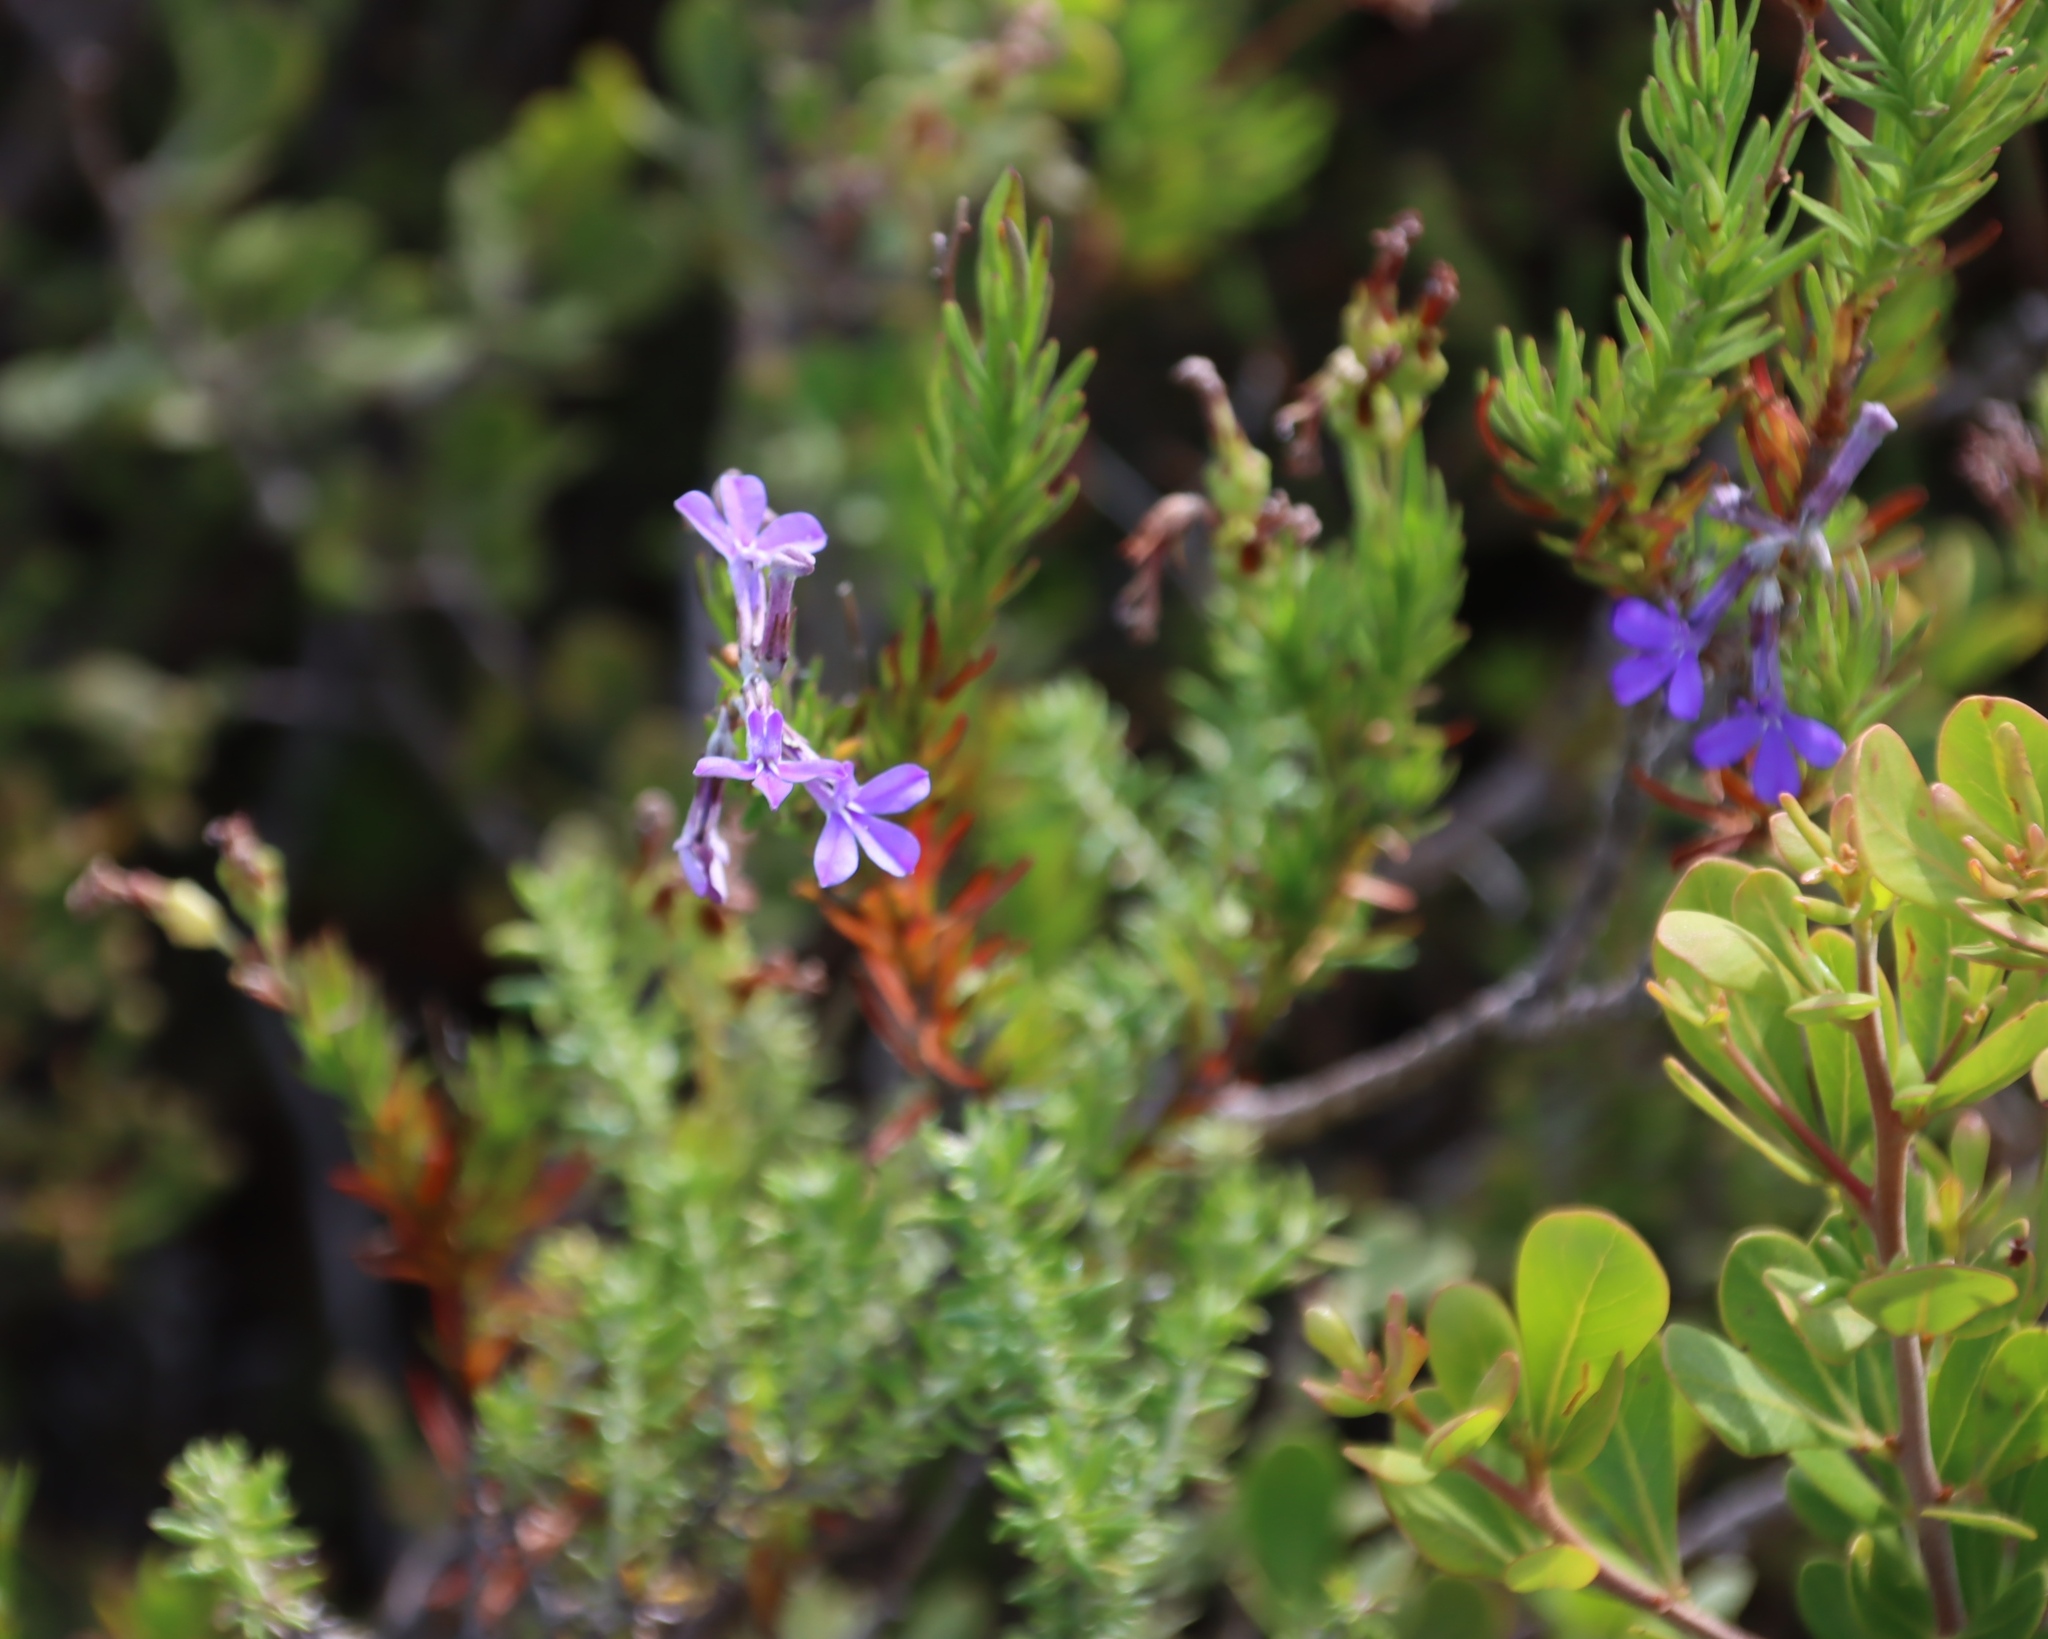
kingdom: Plantae
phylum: Tracheophyta
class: Magnoliopsida
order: Asterales
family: Campanulaceae
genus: Lobelia
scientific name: Lobelia pinifolia
